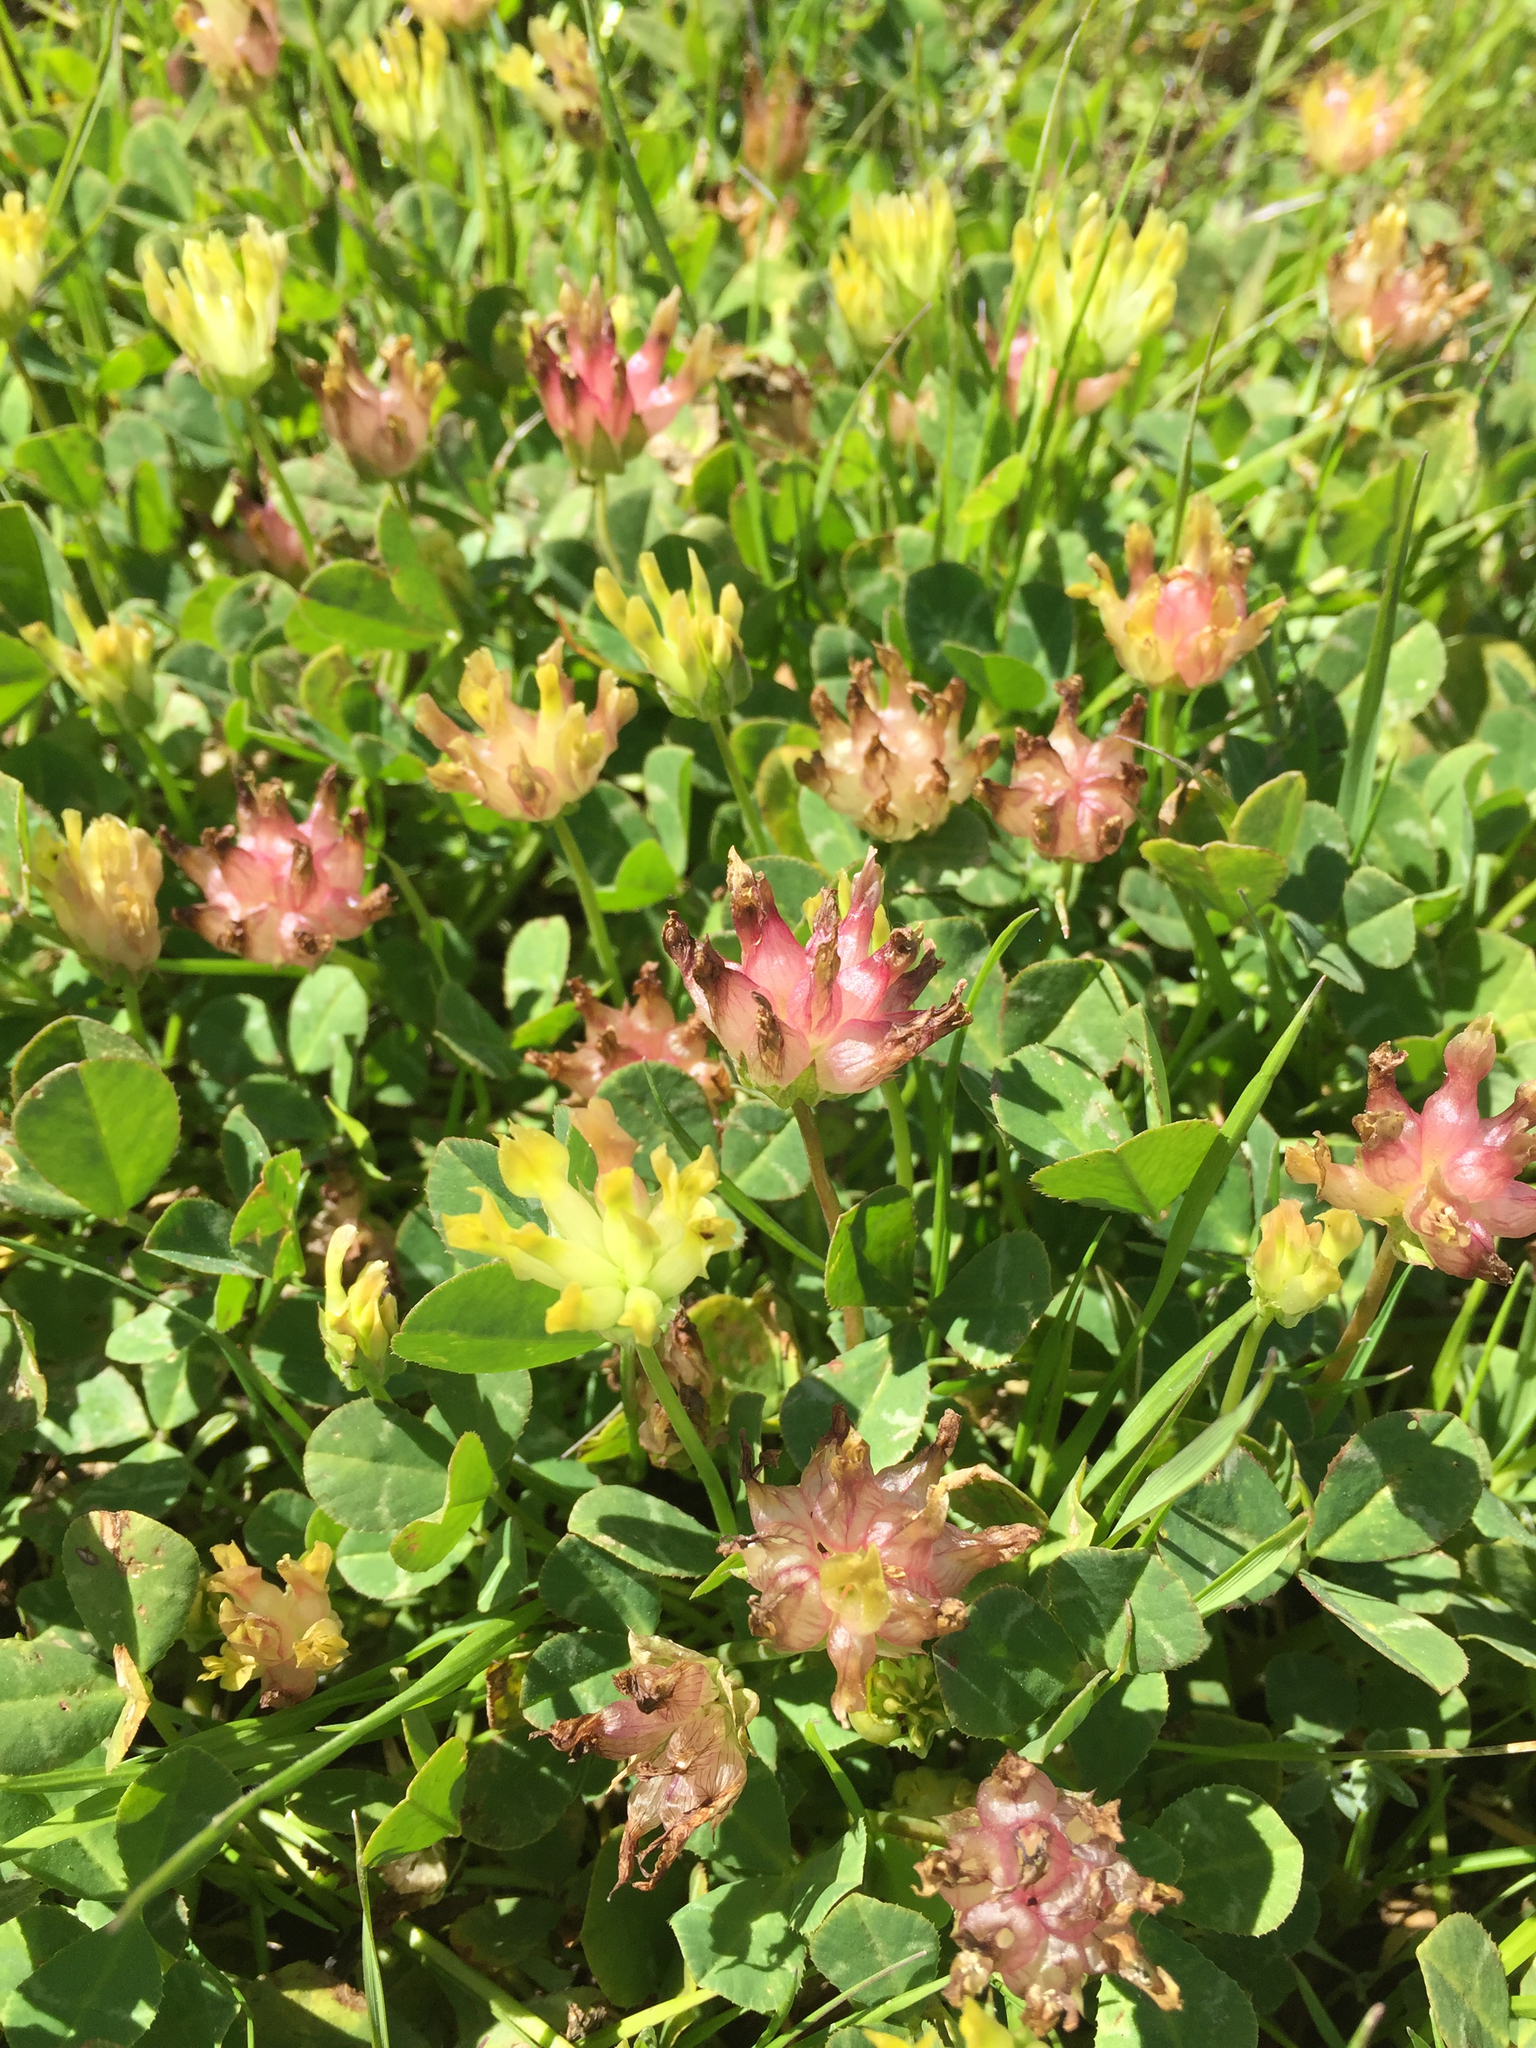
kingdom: Plantae
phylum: Tracheophyta
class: Magnoliopsida
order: Fabales
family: Fabaceae
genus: Trifolium
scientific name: Trifolium fucatum
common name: Puff clover
